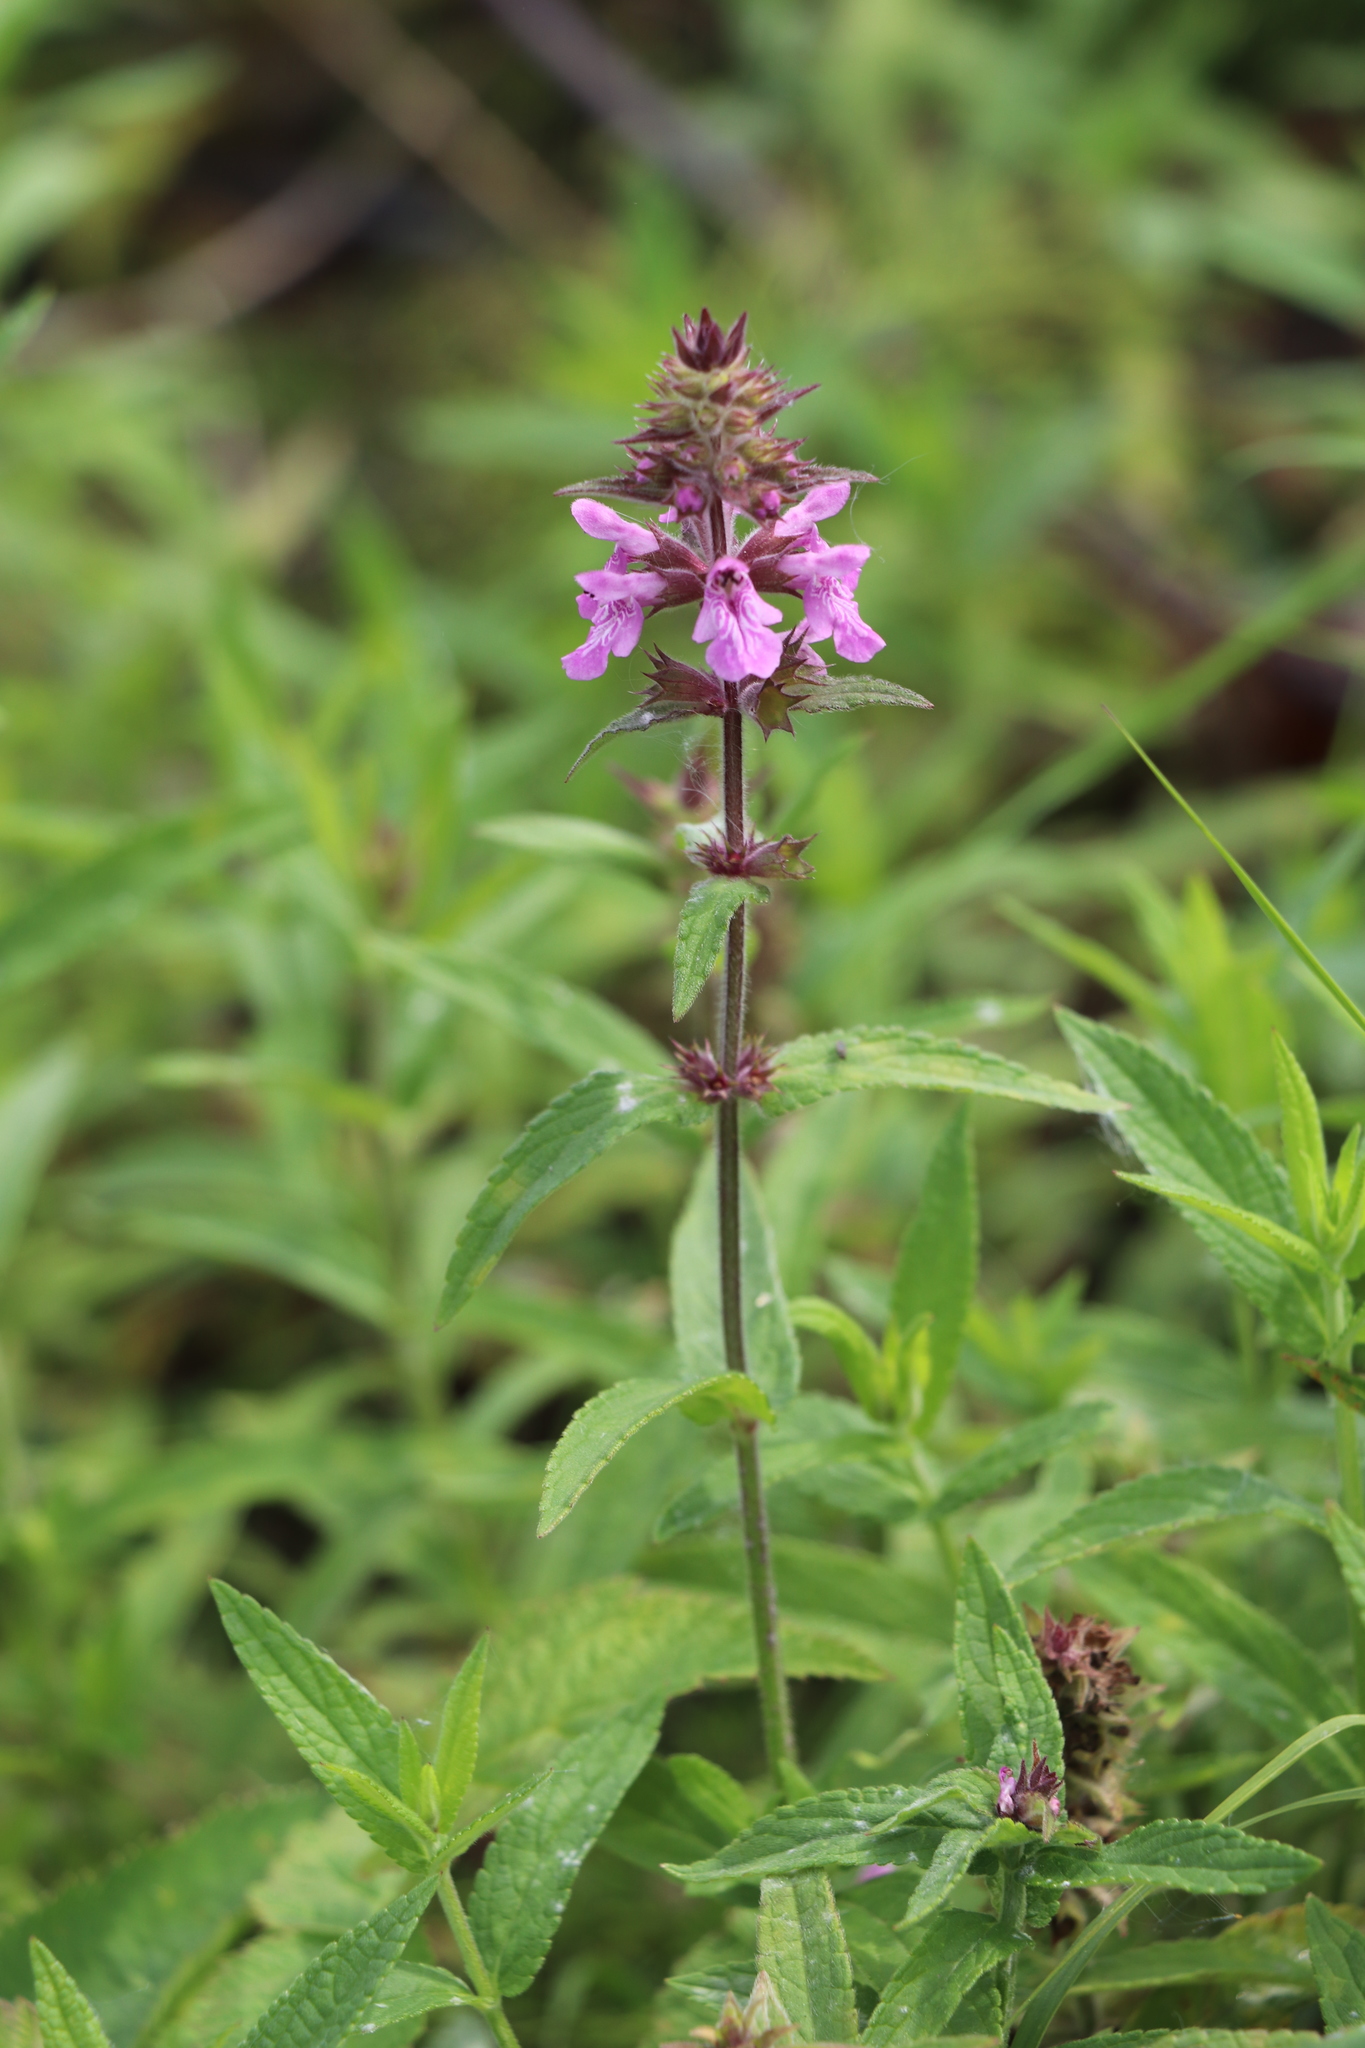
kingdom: Plantae
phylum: Tracheophyta
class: Magnoliopsida
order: Lamiales
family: Lamiaceae
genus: Stachys
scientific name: Stachys palustris
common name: Marsh woundwort
